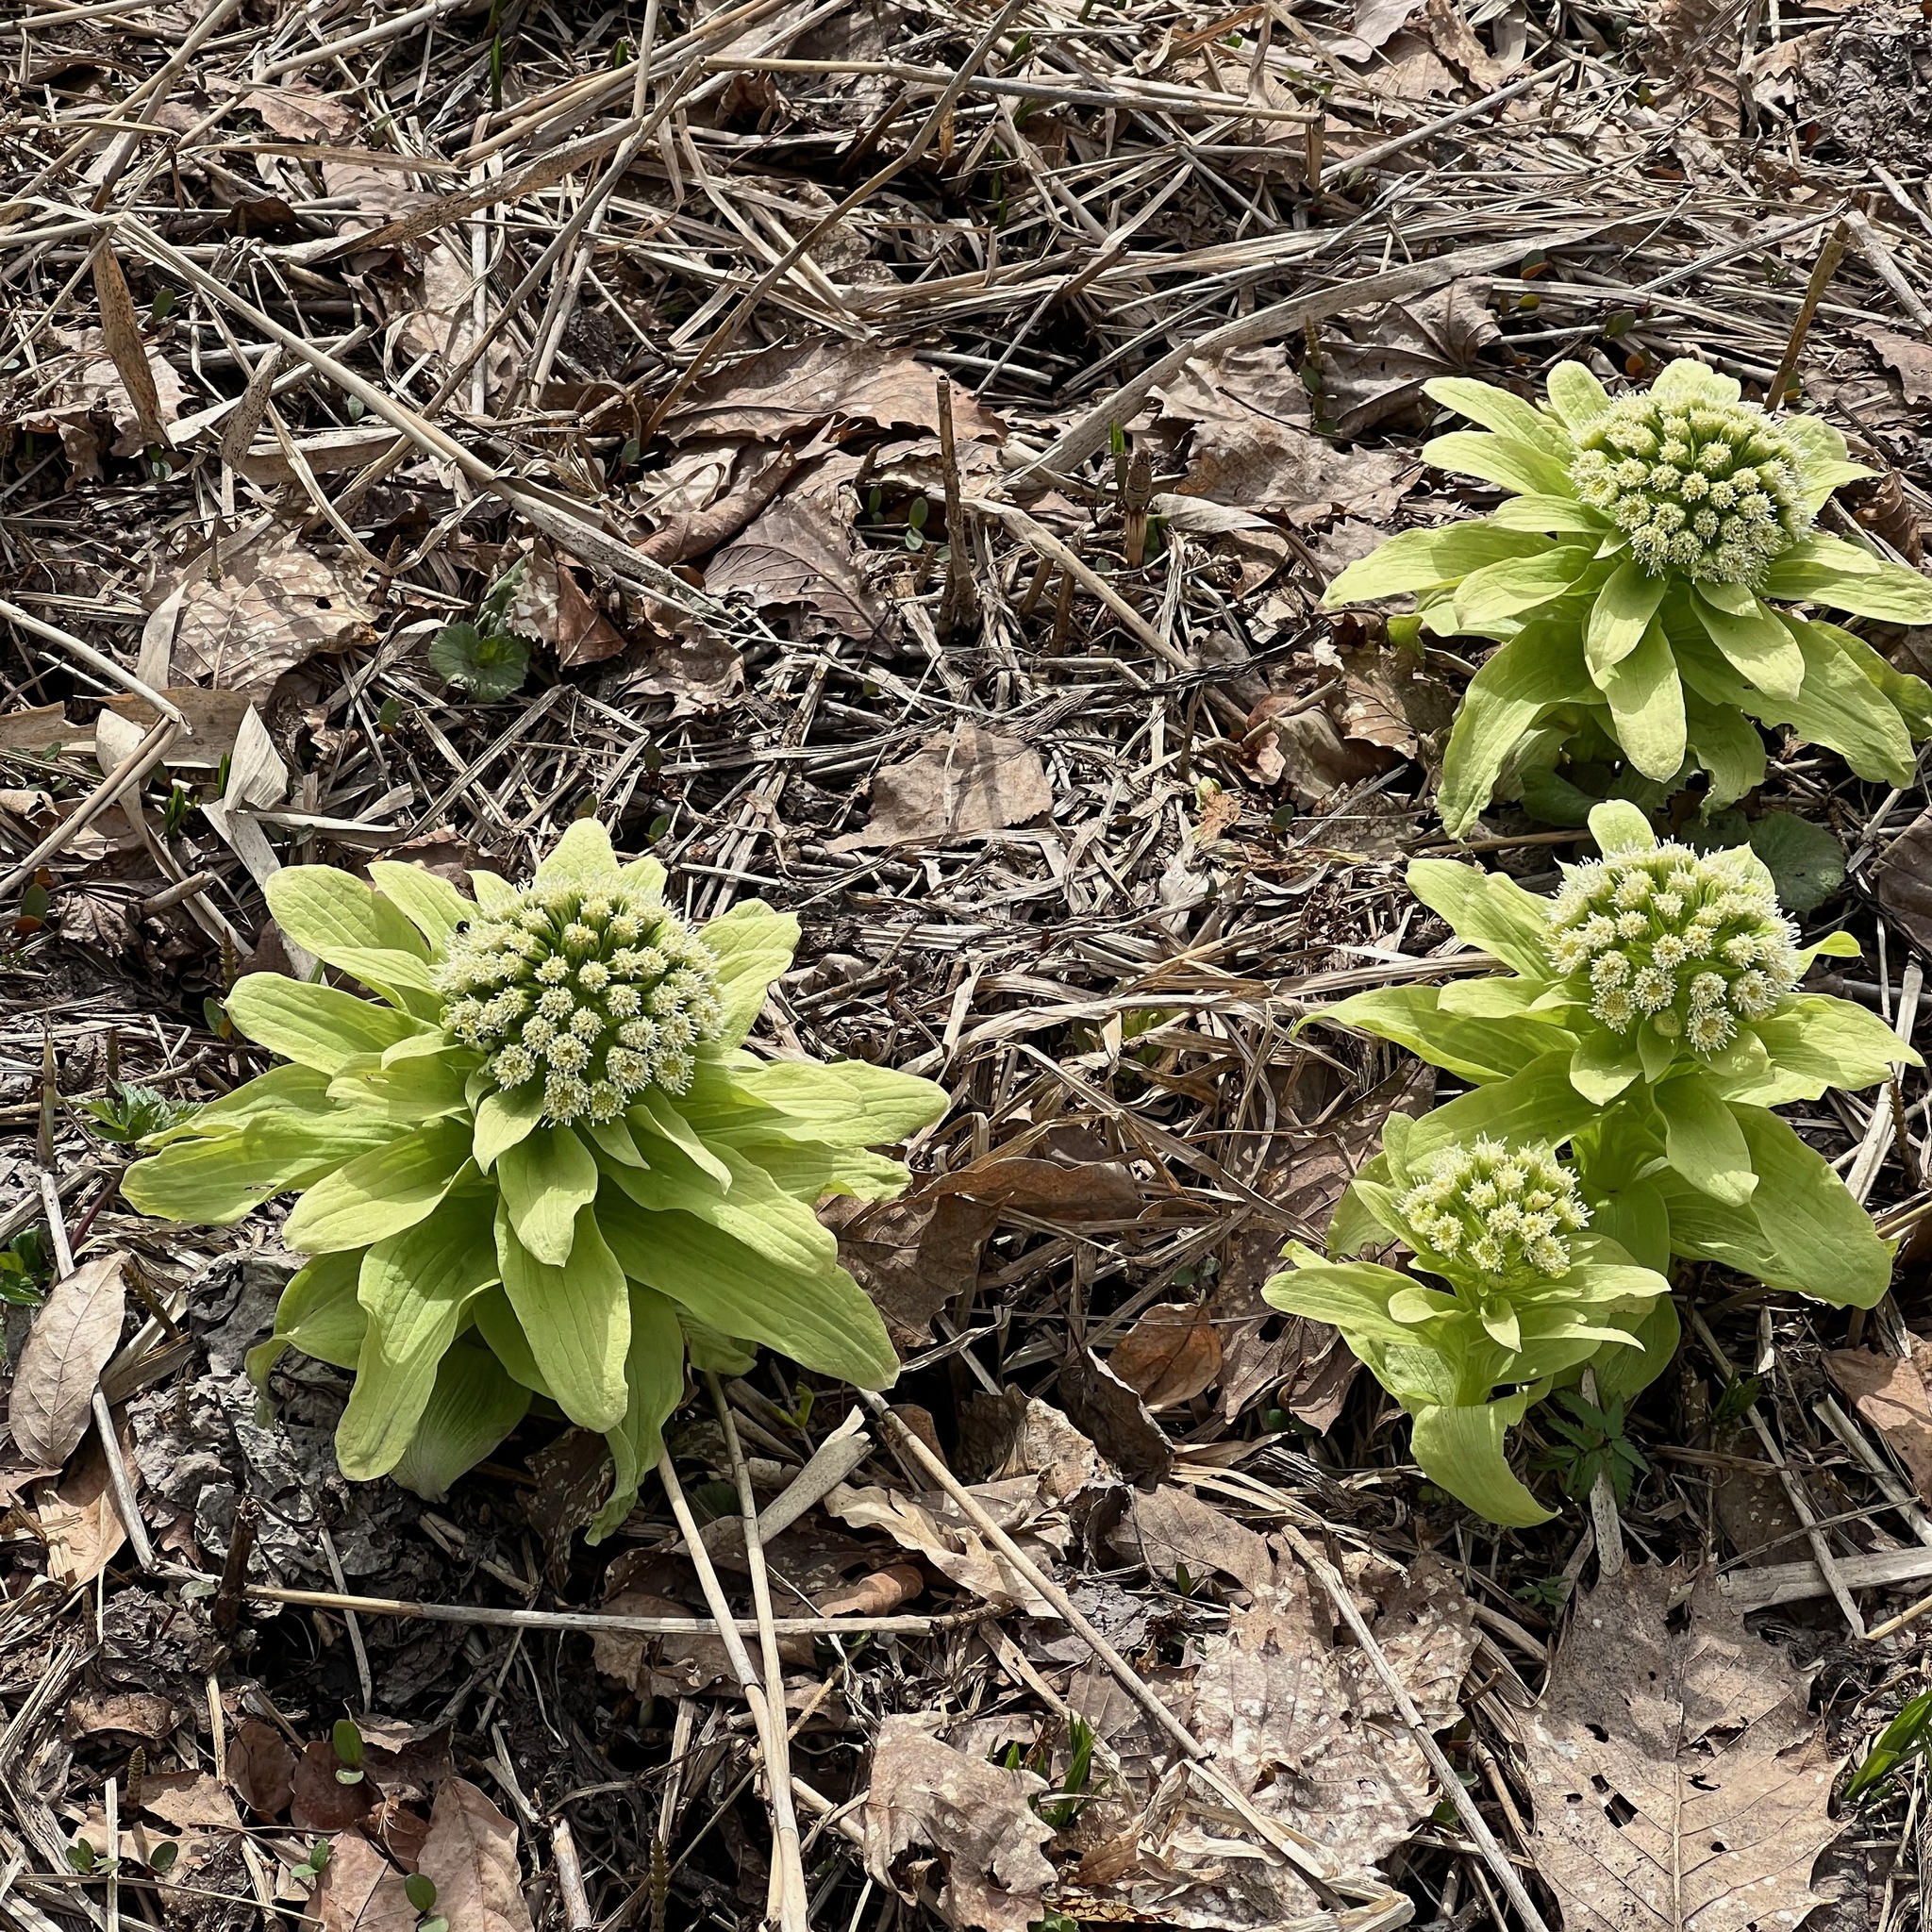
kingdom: Plantae
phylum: Tracheophyta
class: Magnoliopsida
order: Asterales
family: Asteraceae
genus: Petasites
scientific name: Petasites japonicus
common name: Giant butterbur
